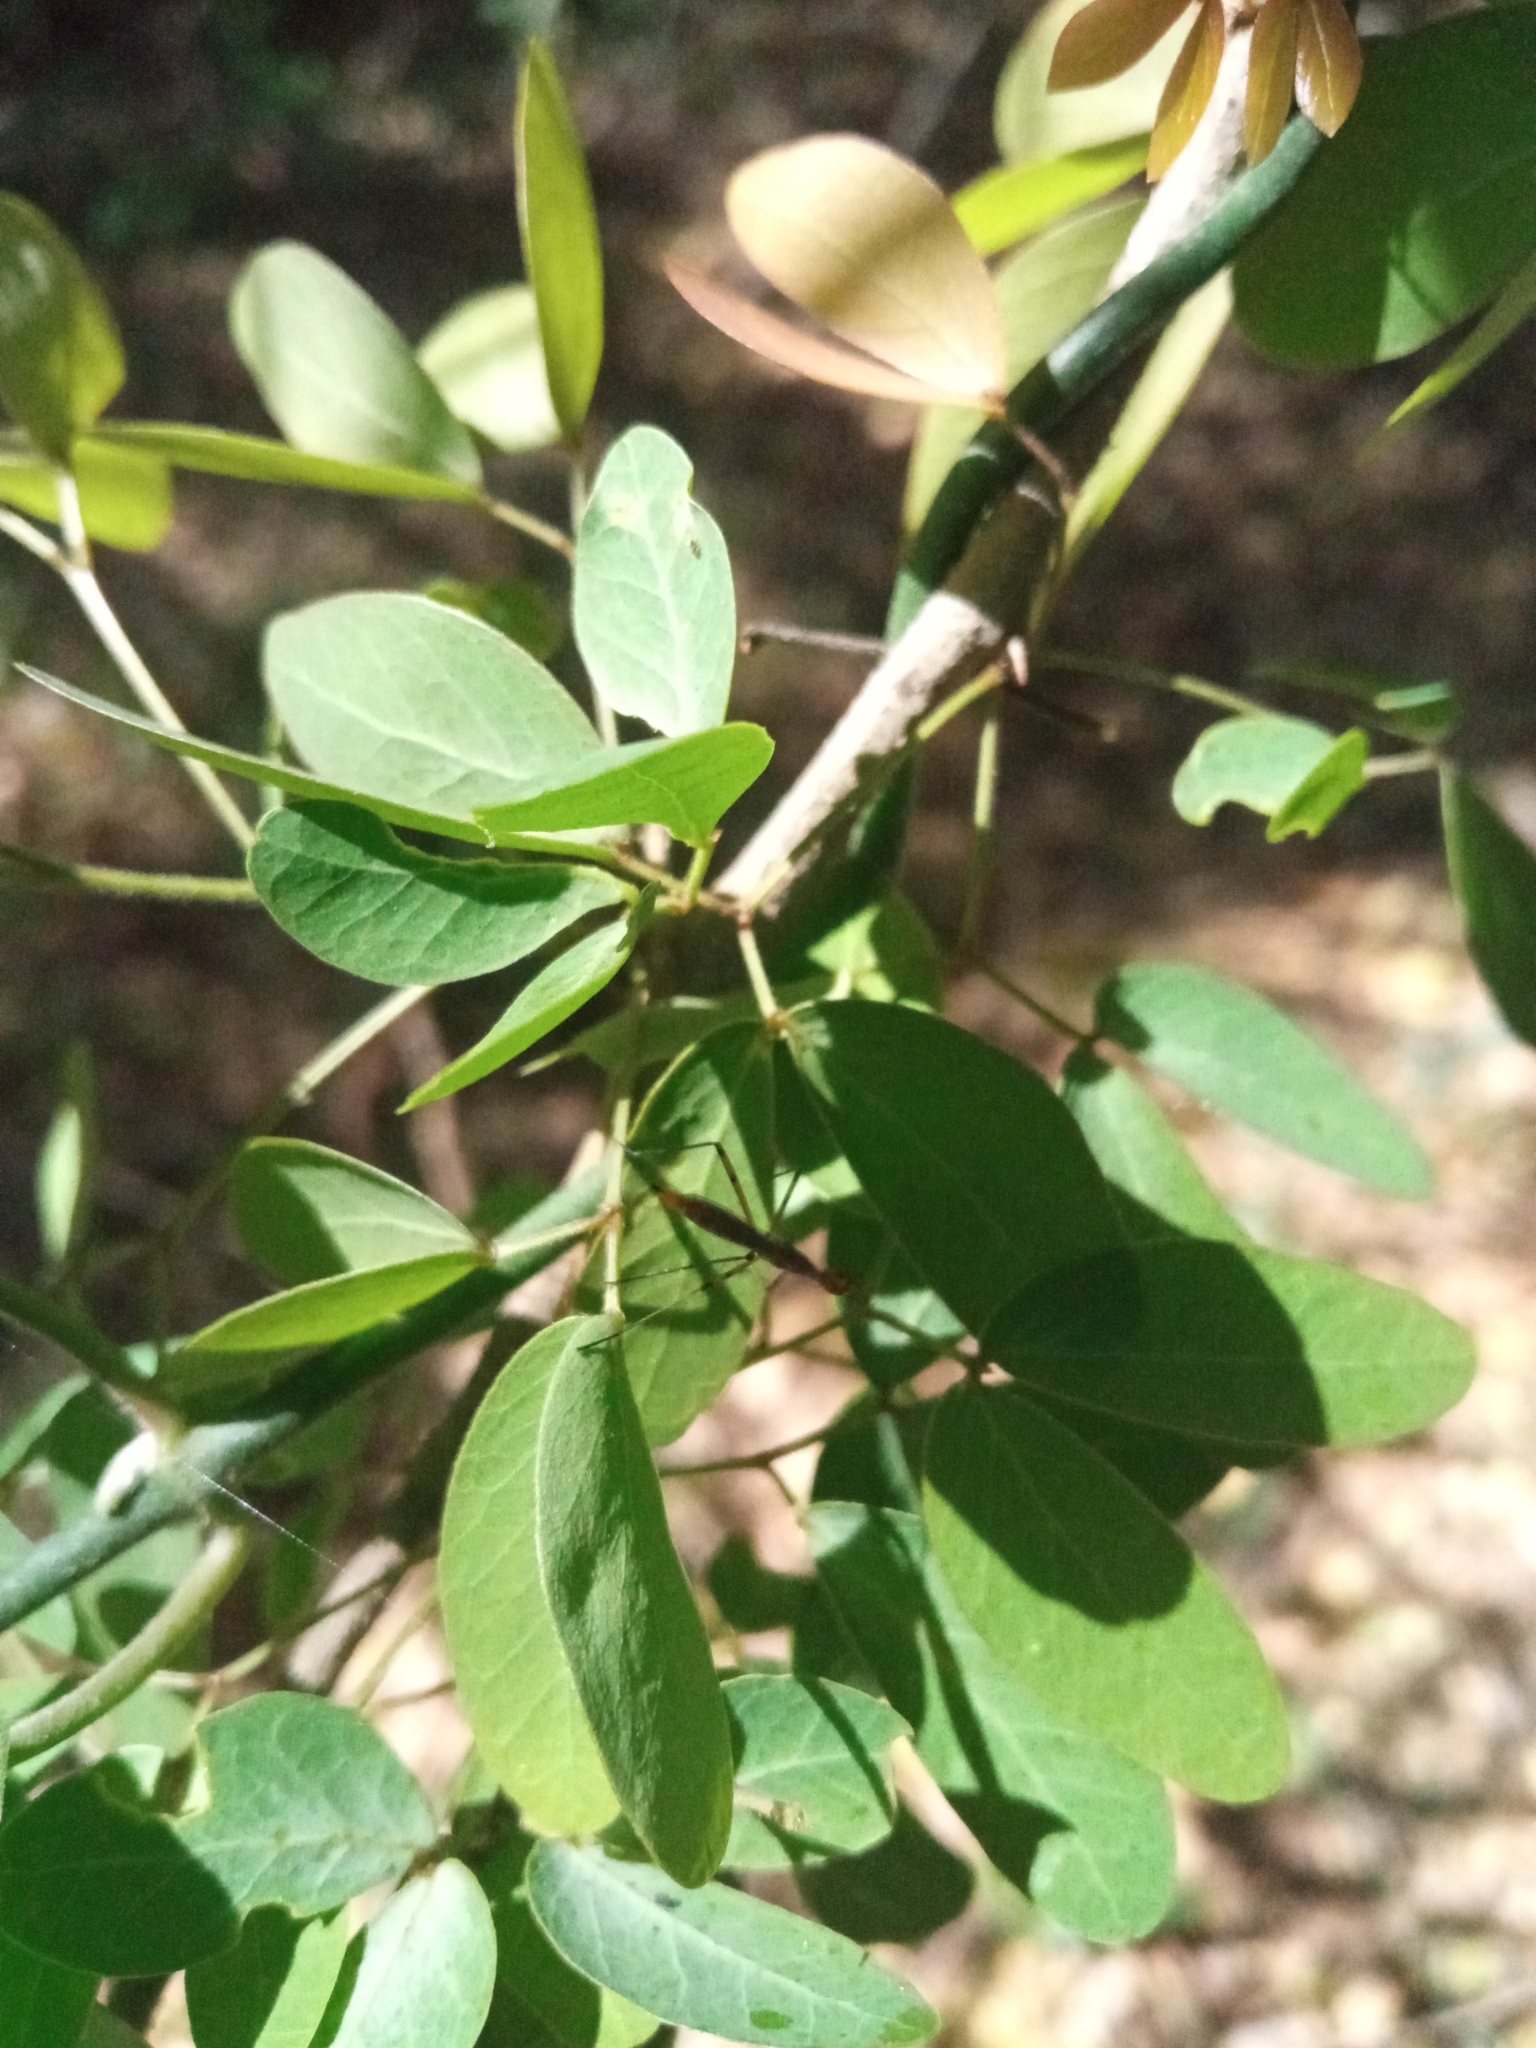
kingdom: Plantae
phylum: Tracheophyta
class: Magnoliopsida
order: Fabales
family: Fabaceae
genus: Pithecellobium
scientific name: Pithecellobium dulce
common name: Monkeypod
